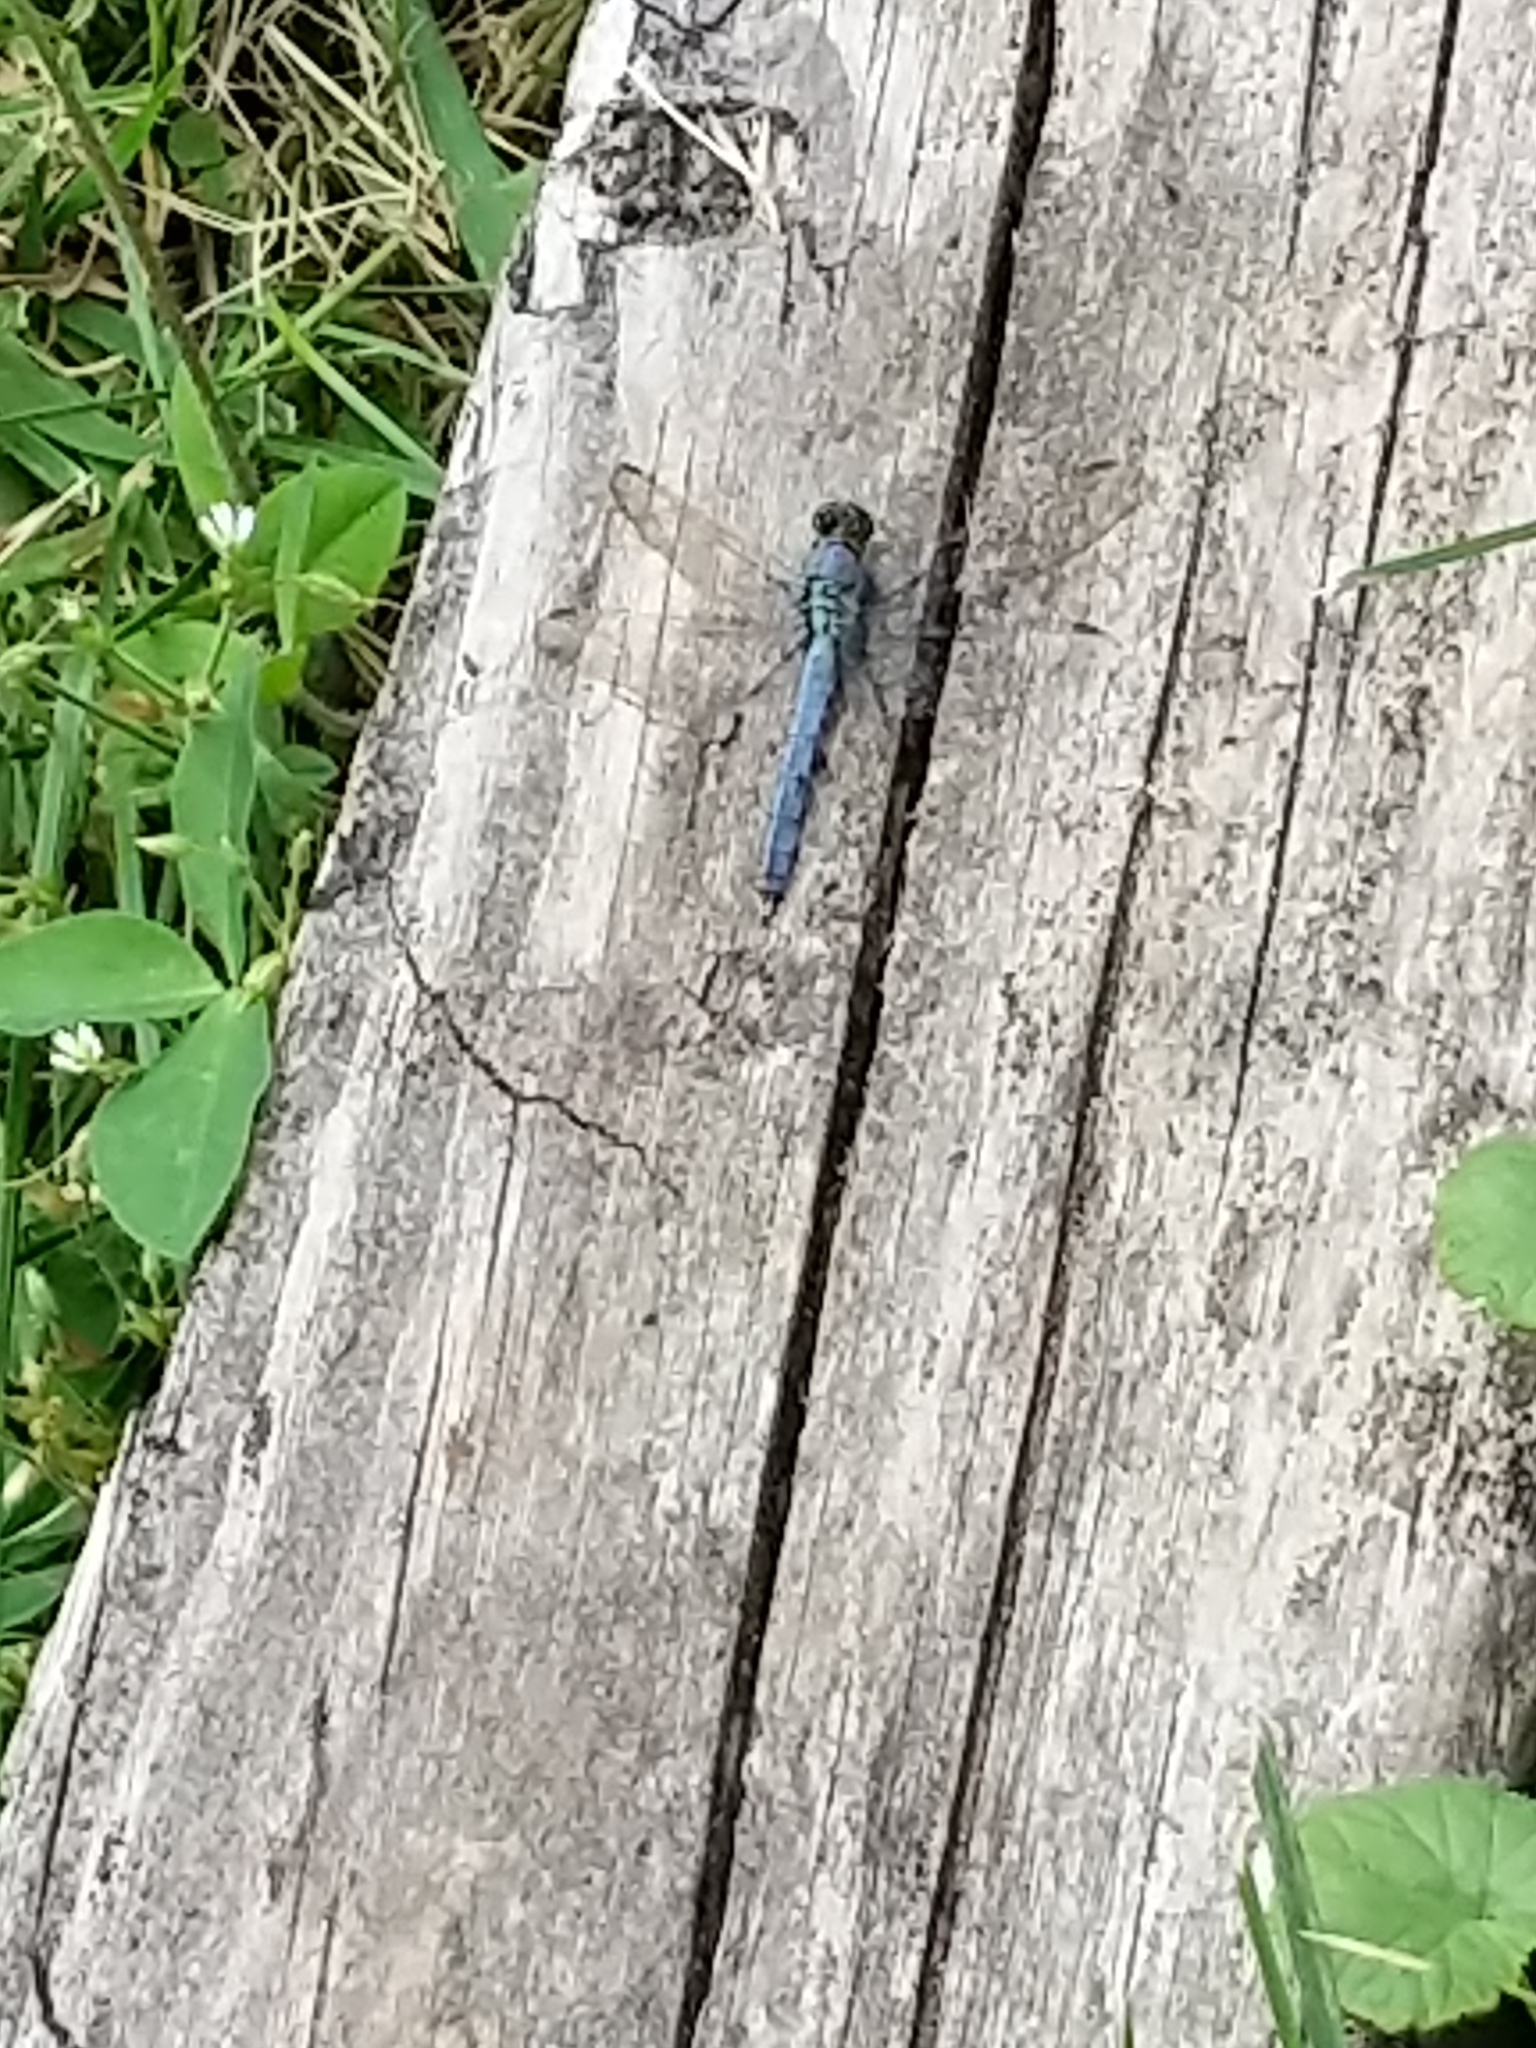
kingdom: Animalia
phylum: Arthropoda
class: Insecta
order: Odonata
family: Libellulidae
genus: Erythemis
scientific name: Erythemis simplicicollis
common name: Eastern pondhawk
